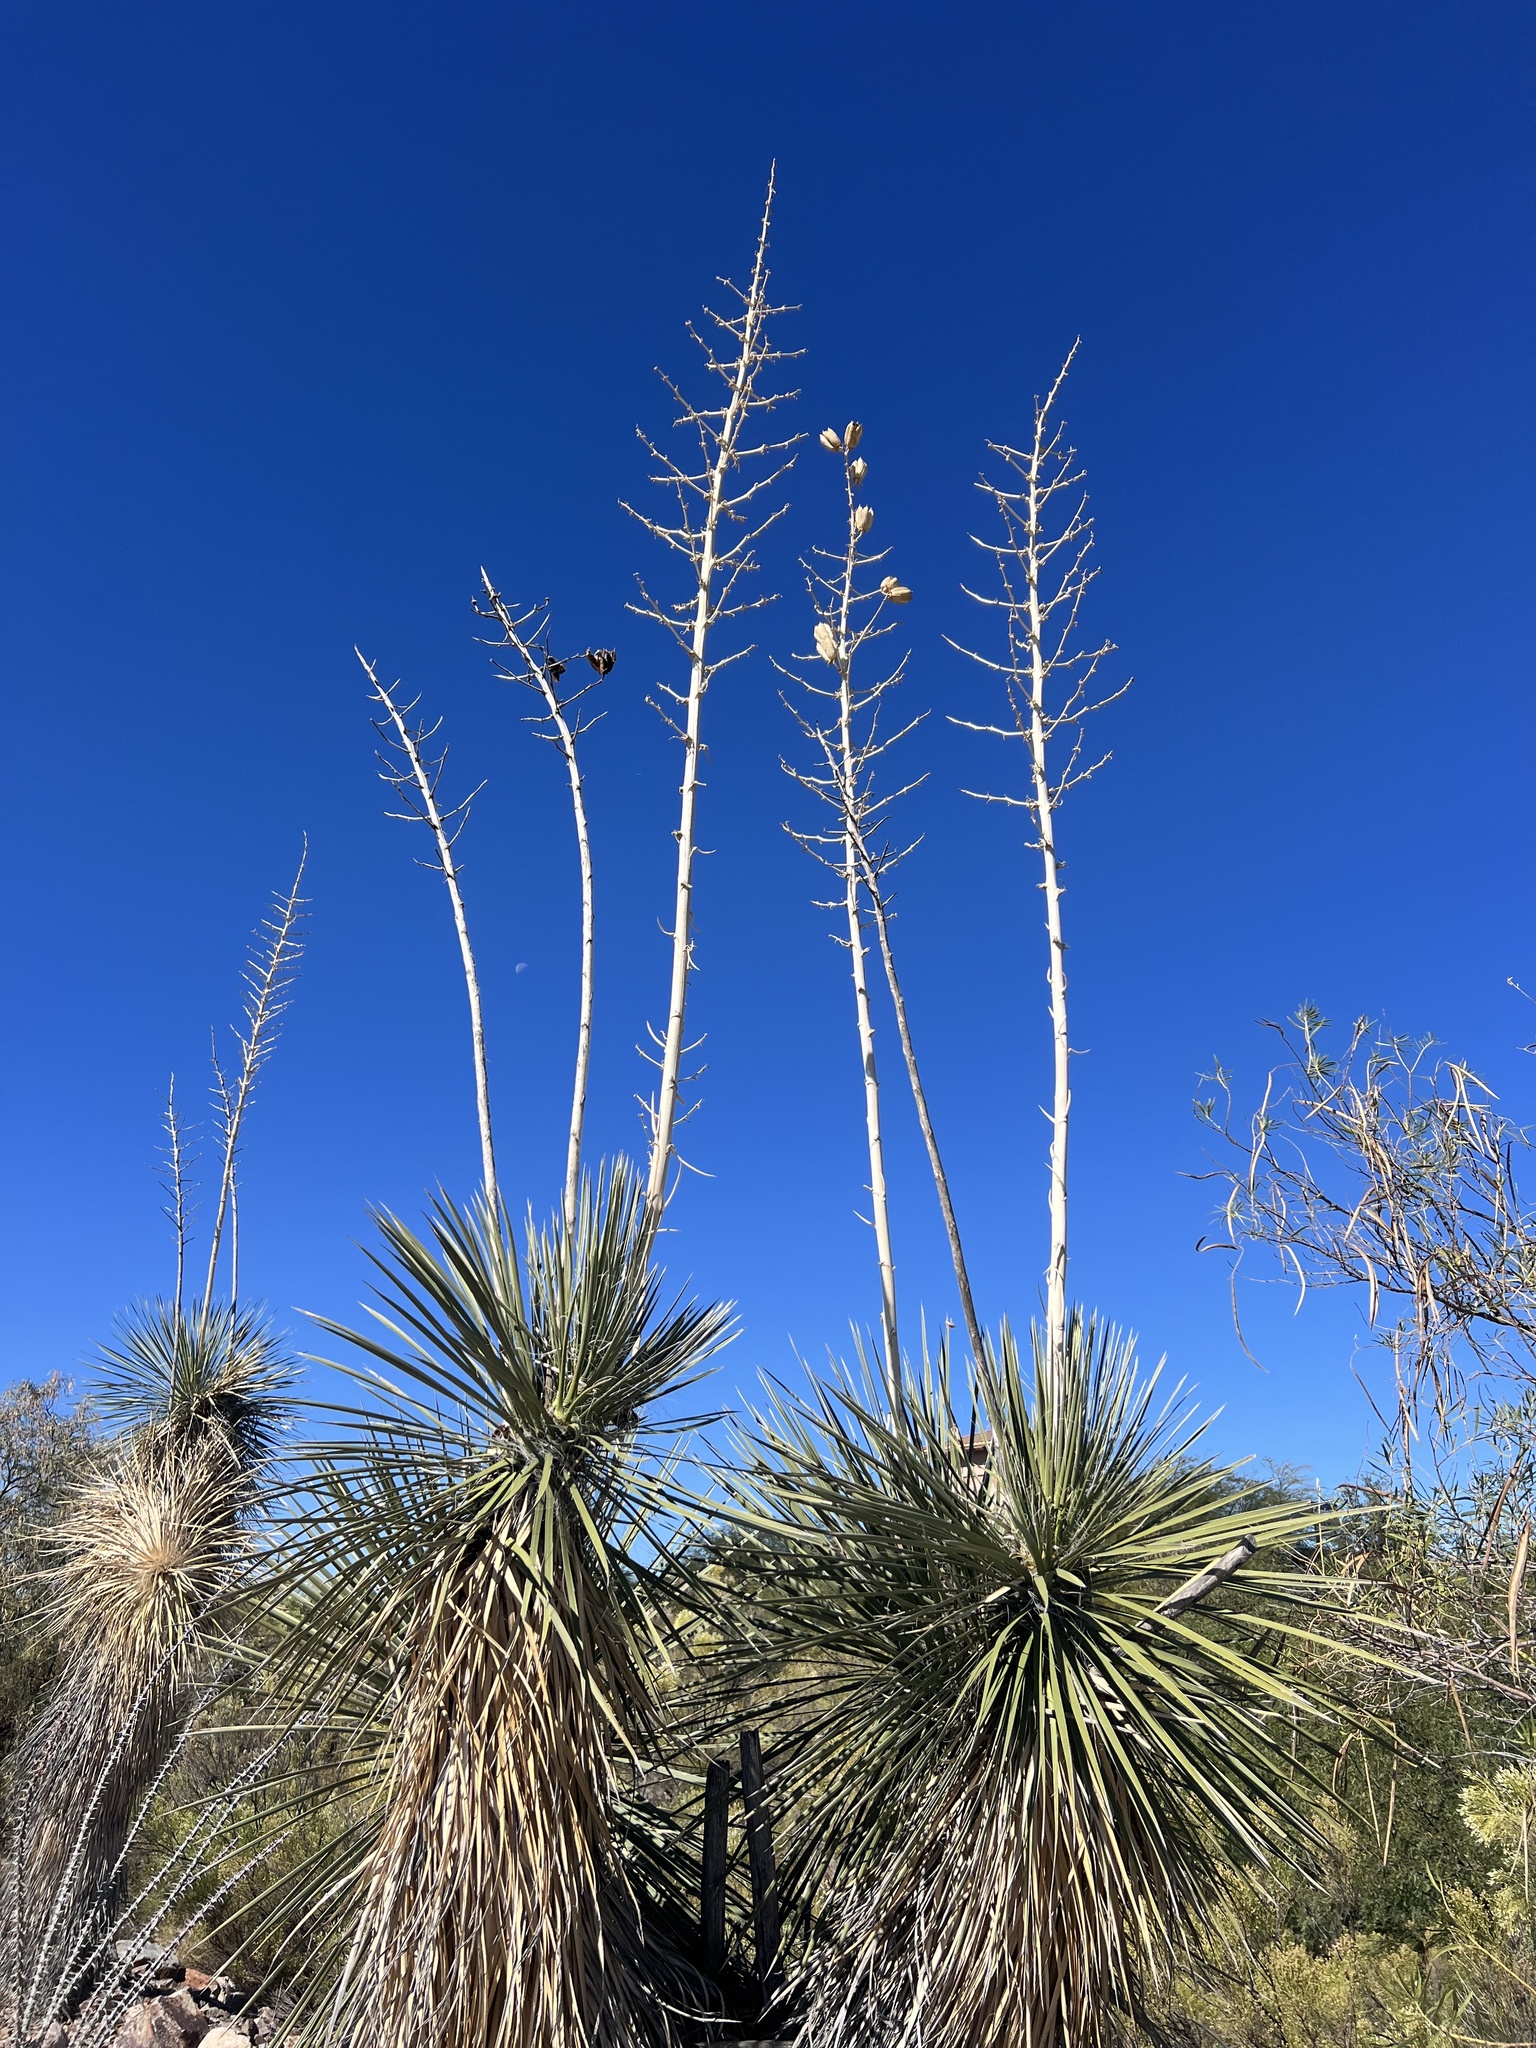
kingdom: Plantae
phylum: Tracheophyta
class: Liliopsida
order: Asparagales
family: Asparagaceae
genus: Yucca
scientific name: Yucca elata
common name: Palmella
